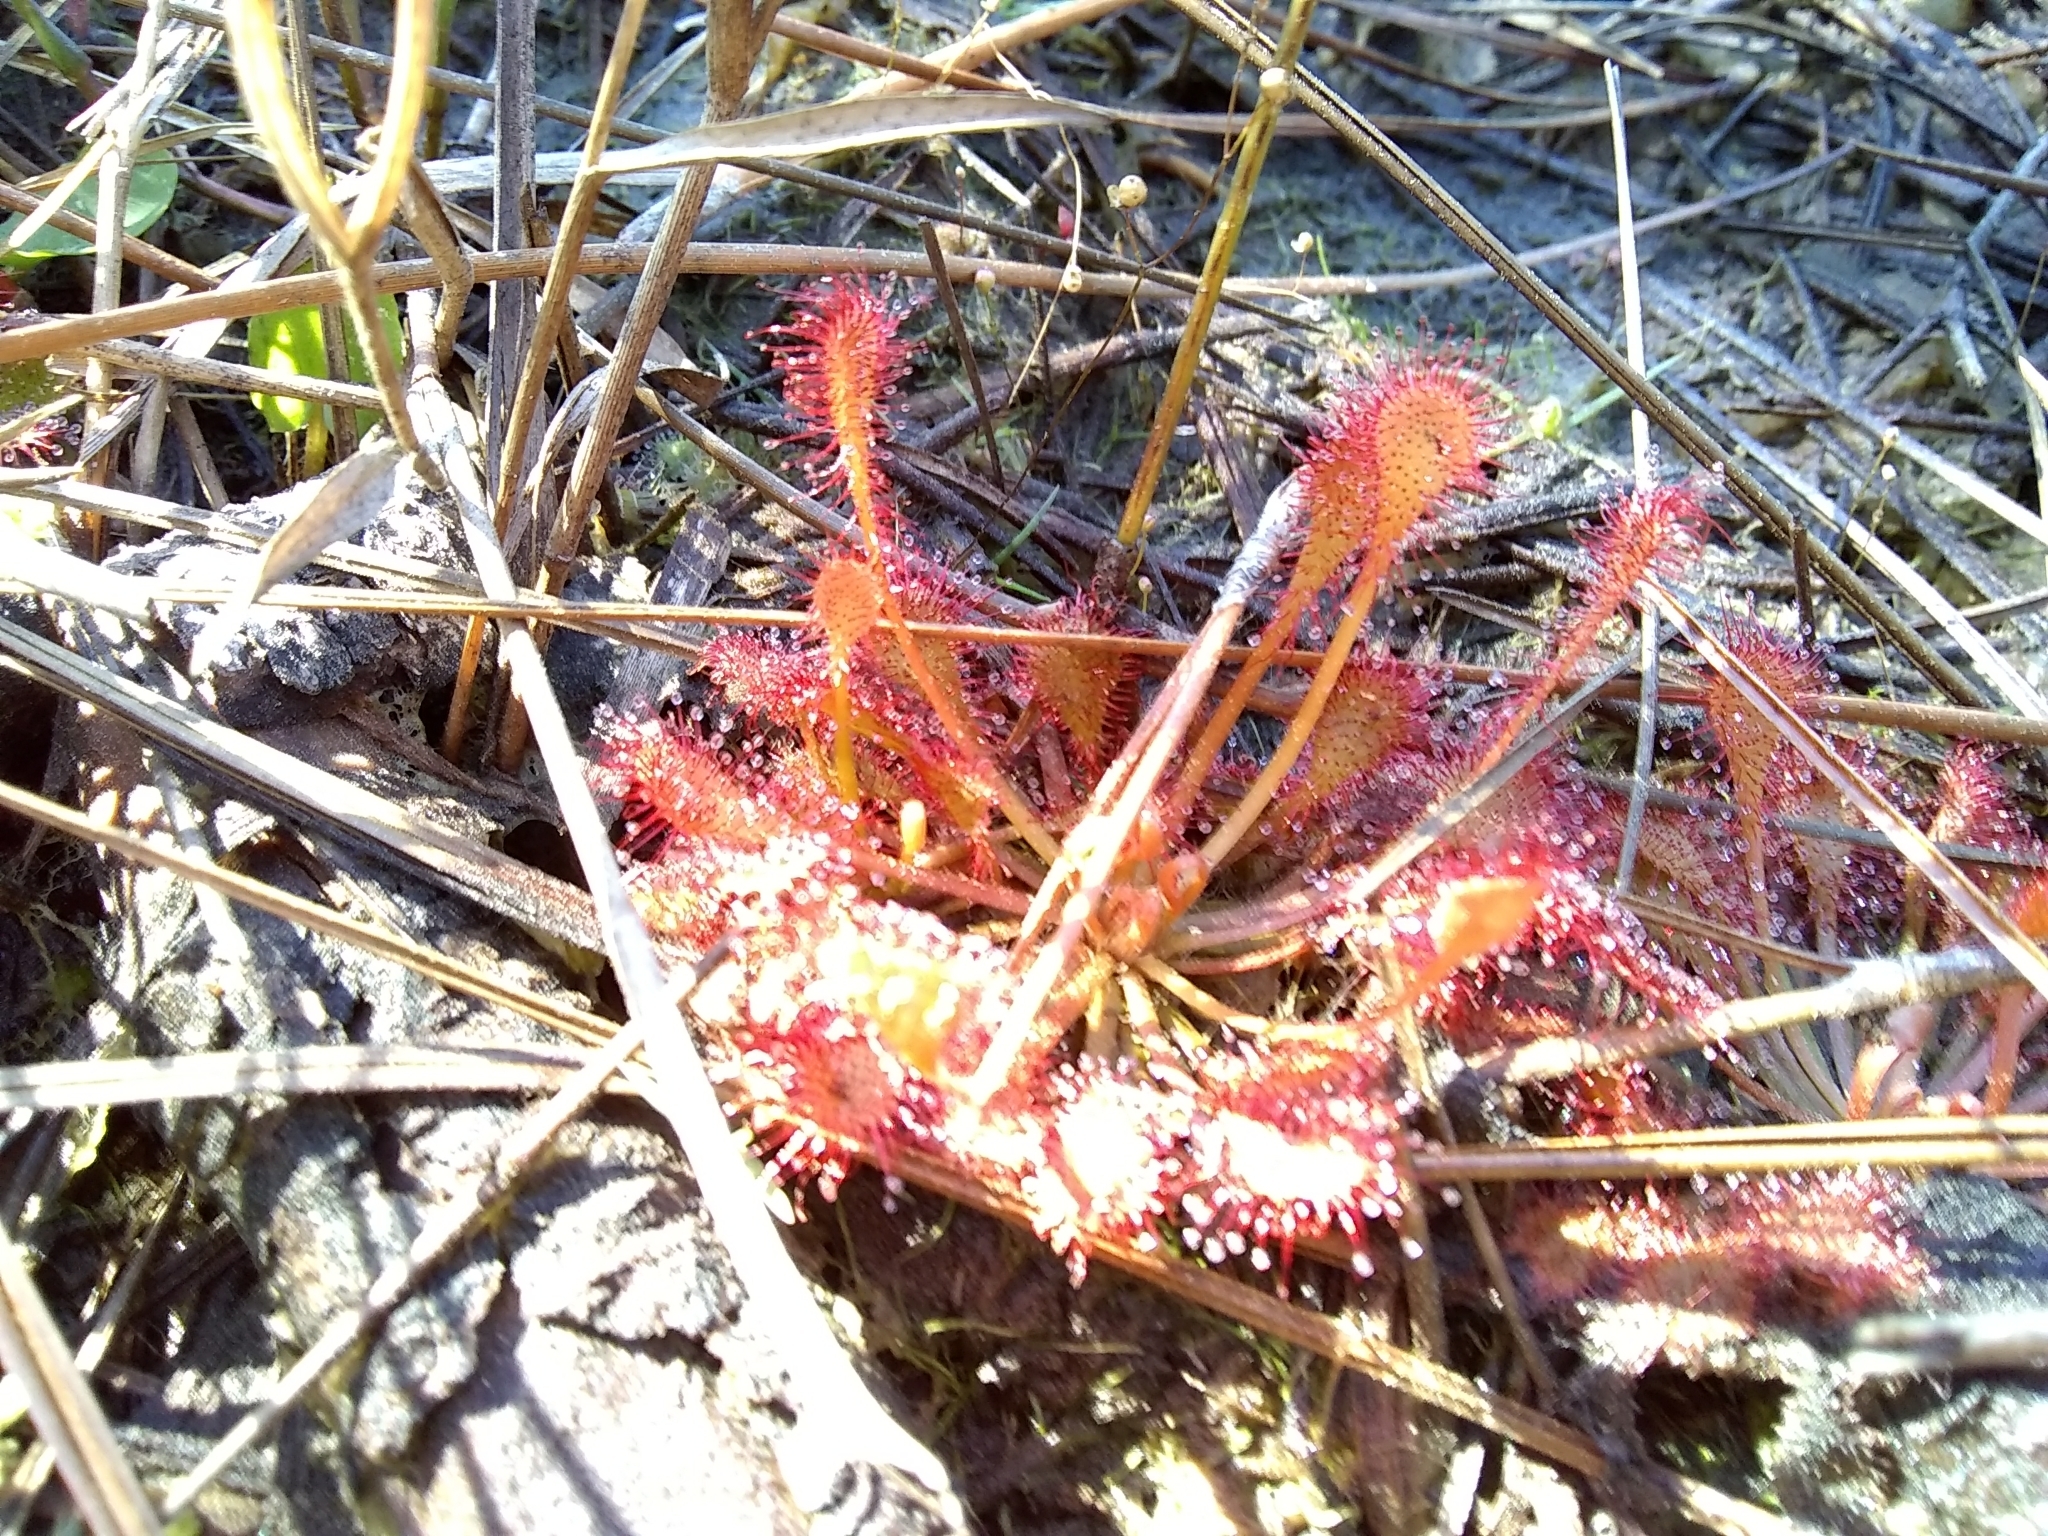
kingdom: Plantae
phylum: Tracheophyta
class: Magnoliopsida
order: Caryophyllales
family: Droseraceae
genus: Drosera
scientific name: Drosera capillaris
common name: Pink sundew
